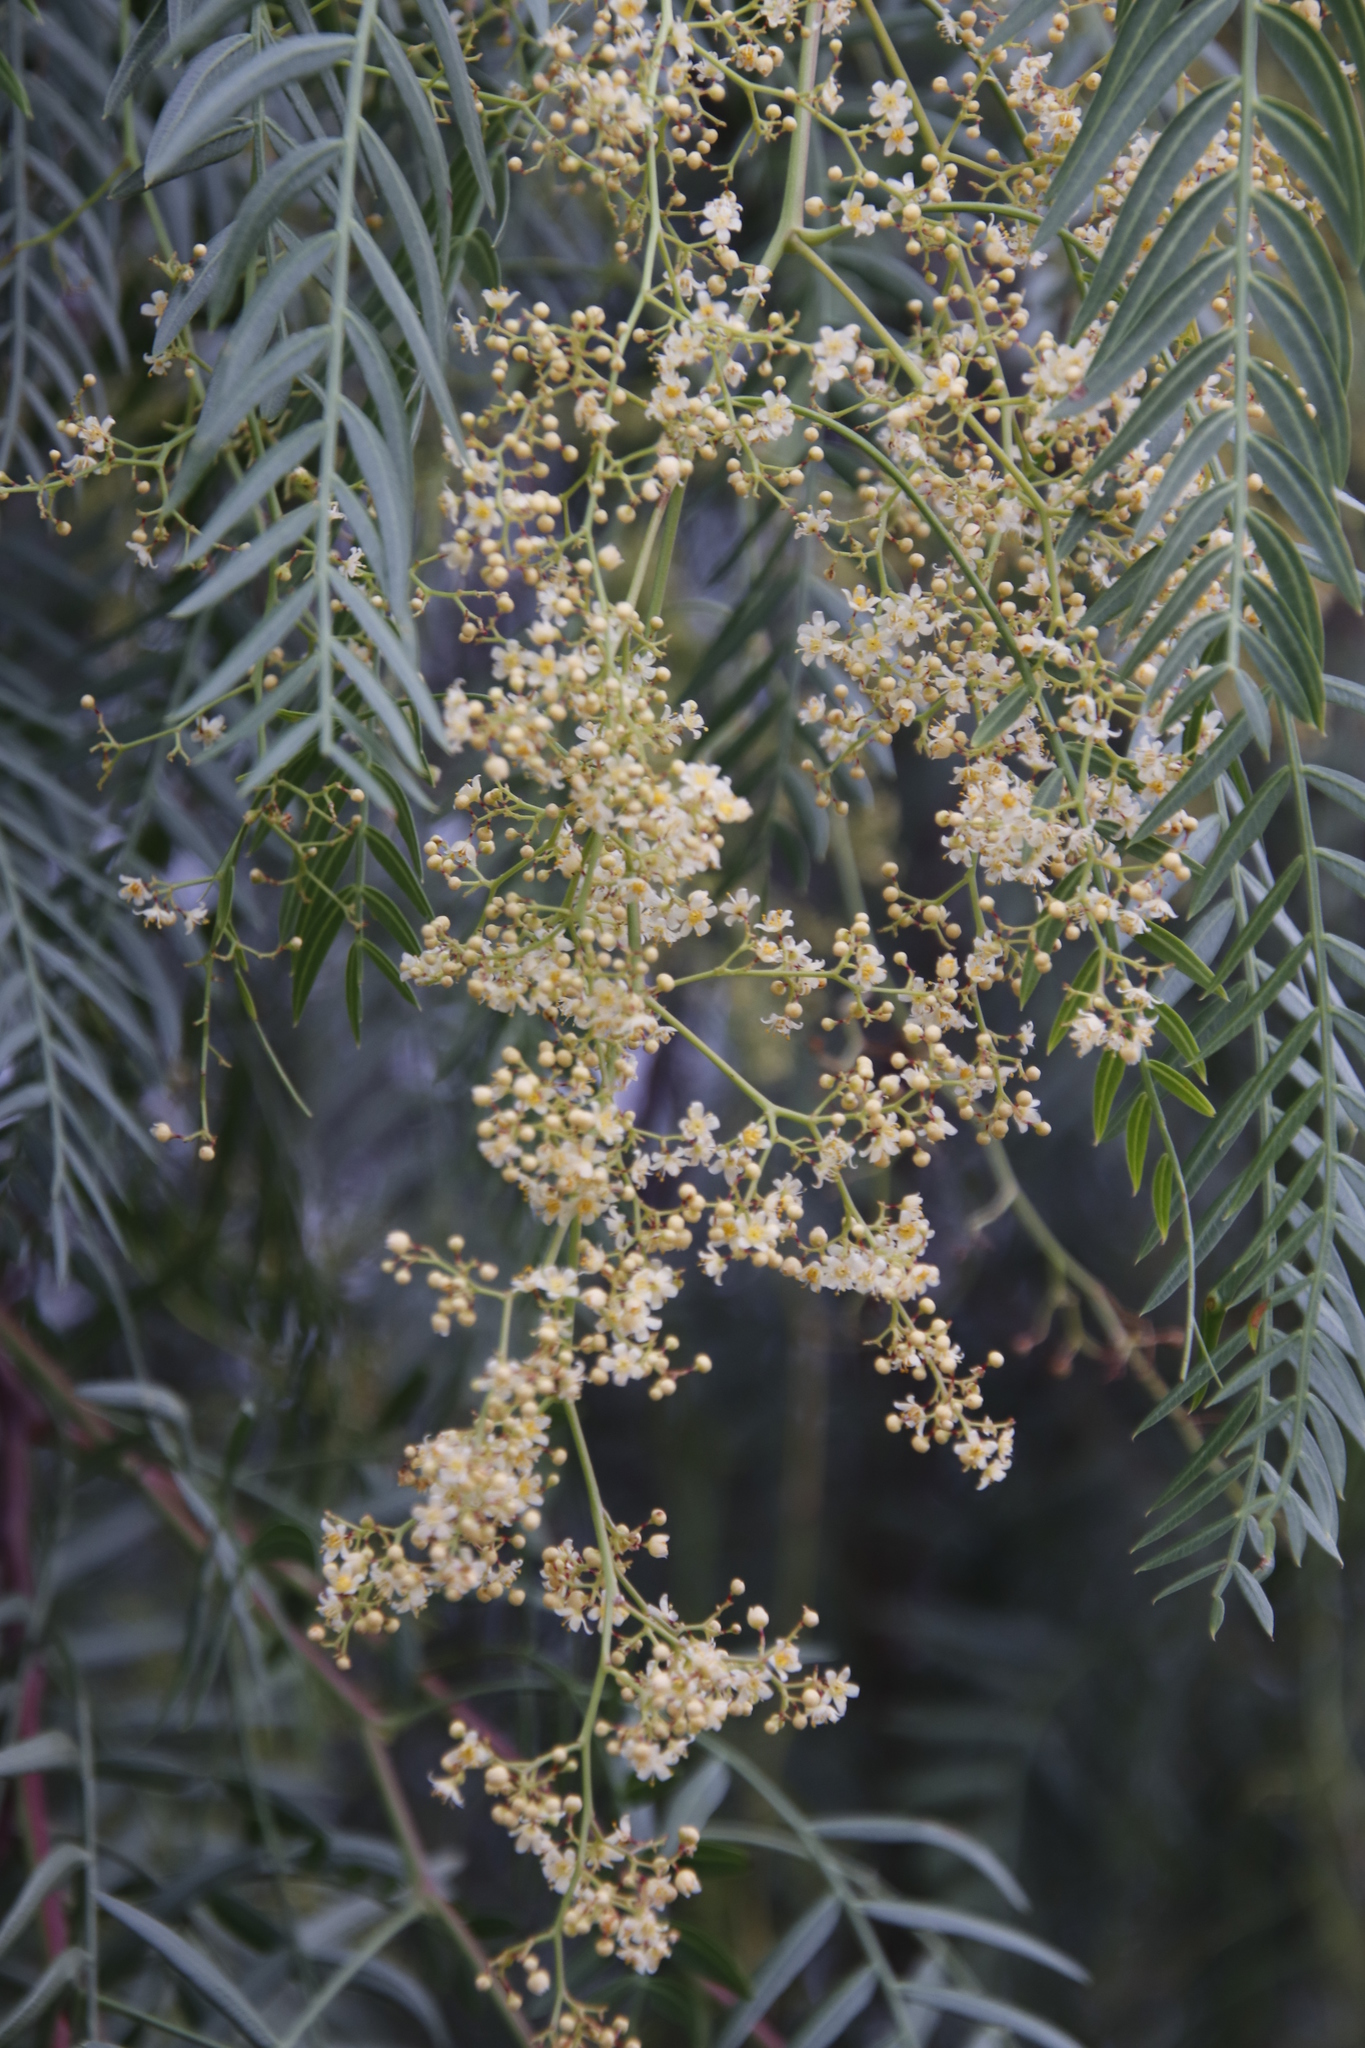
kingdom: Plantae
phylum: Tracheophyta
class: Magnoliopsida
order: Sapindales
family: Anacardiaceae
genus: Schinus
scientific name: Schinus molle
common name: Peruvian peppertree
